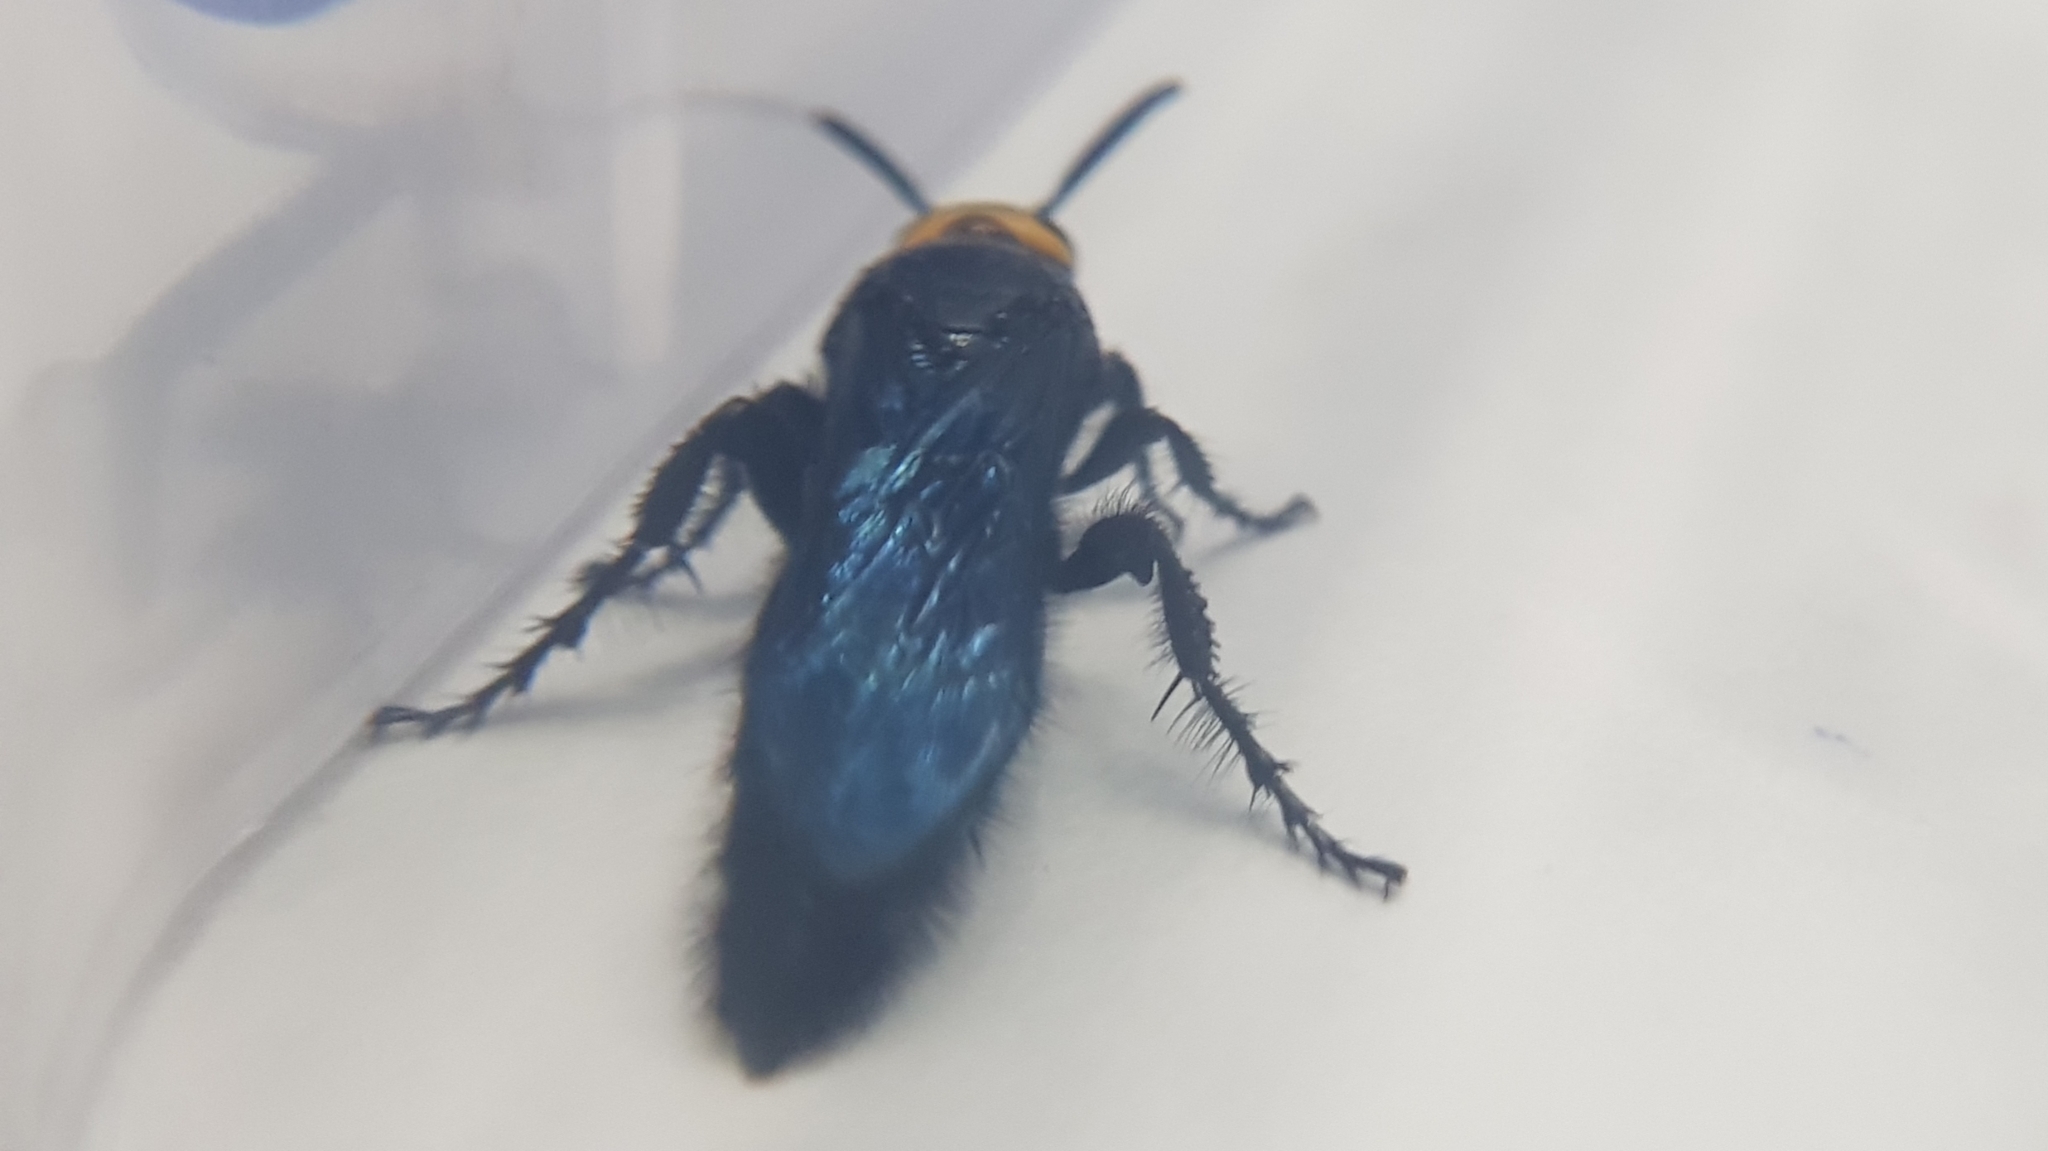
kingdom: Animalia
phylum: Arthropoda
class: Insecta
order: Hymenoptera
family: Scoliidae
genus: Scolia
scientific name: Scolia verticalis
